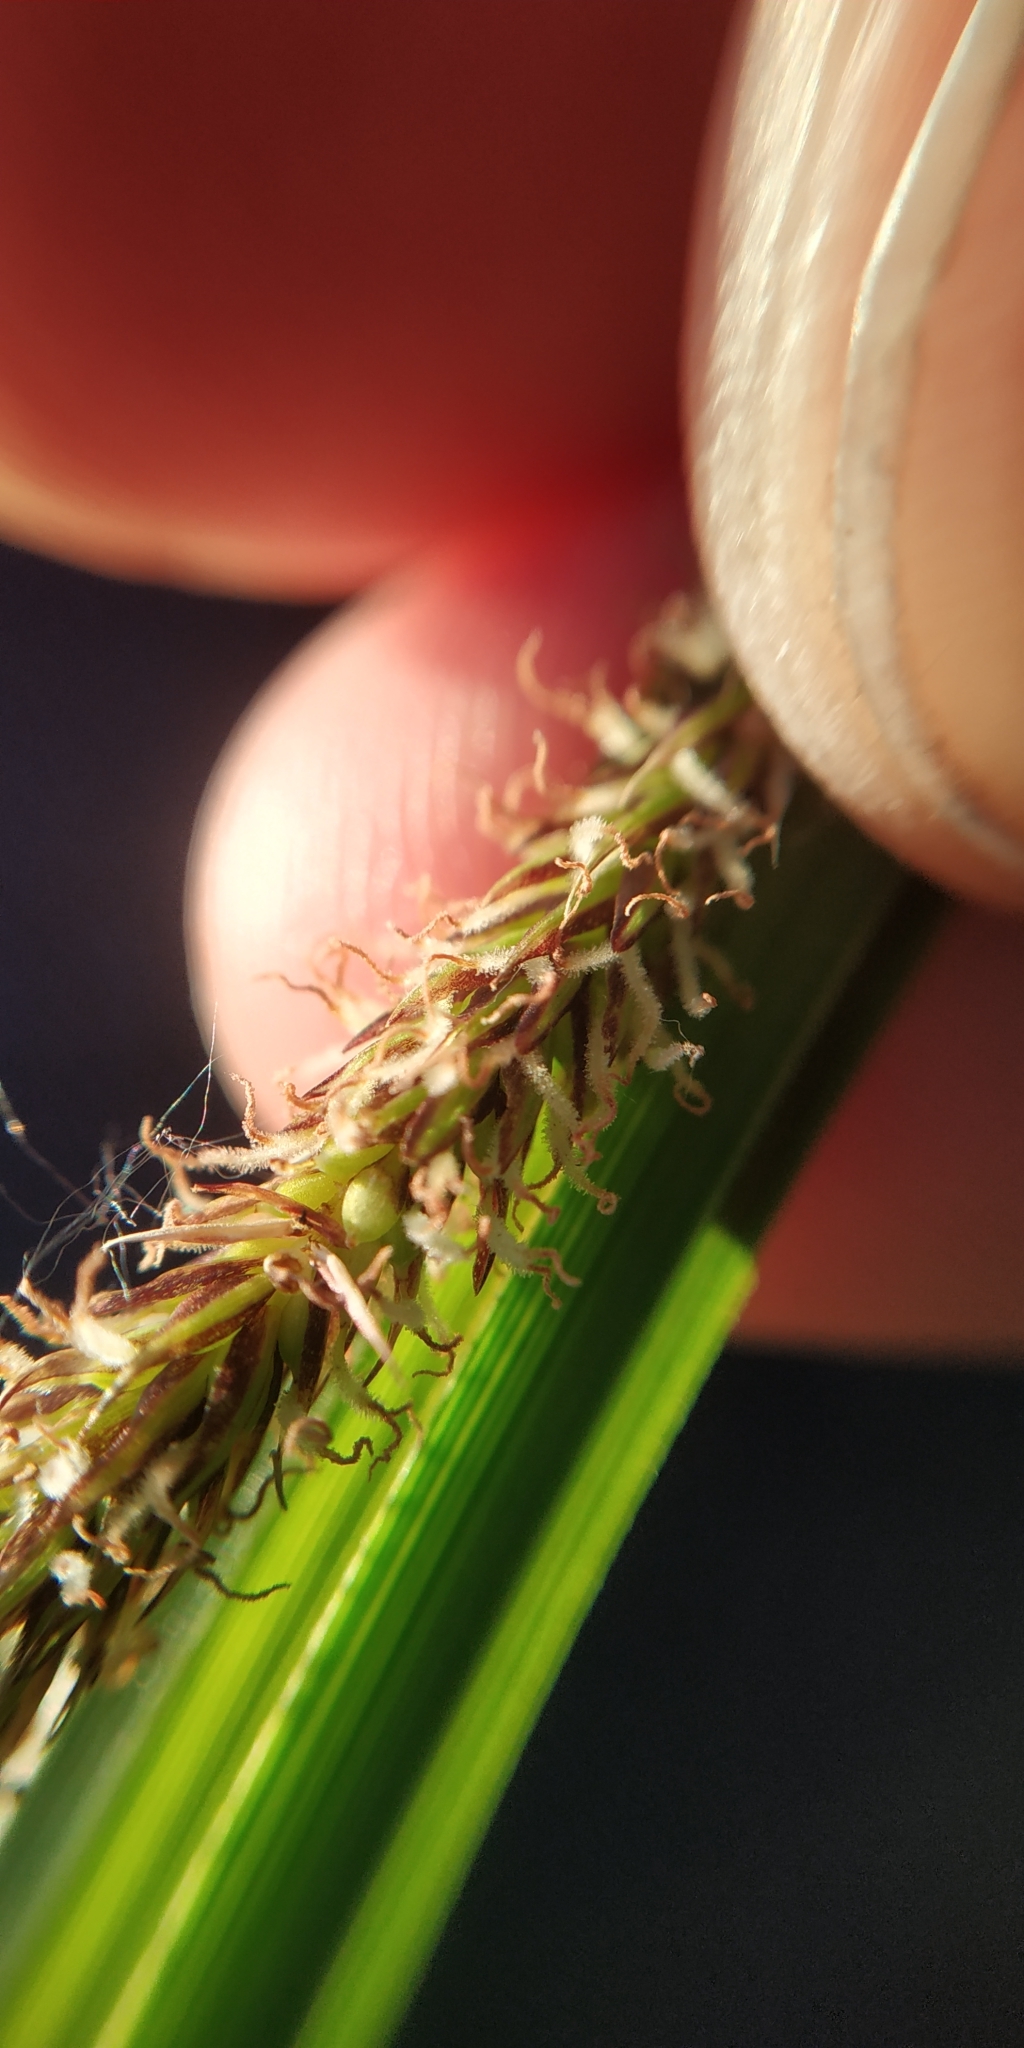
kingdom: Plantae
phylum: Tracheophyta
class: Liliopsida
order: Poales
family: Cyperaceae
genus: Carex
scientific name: Carex acuta
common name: Slender tufted-sedge
